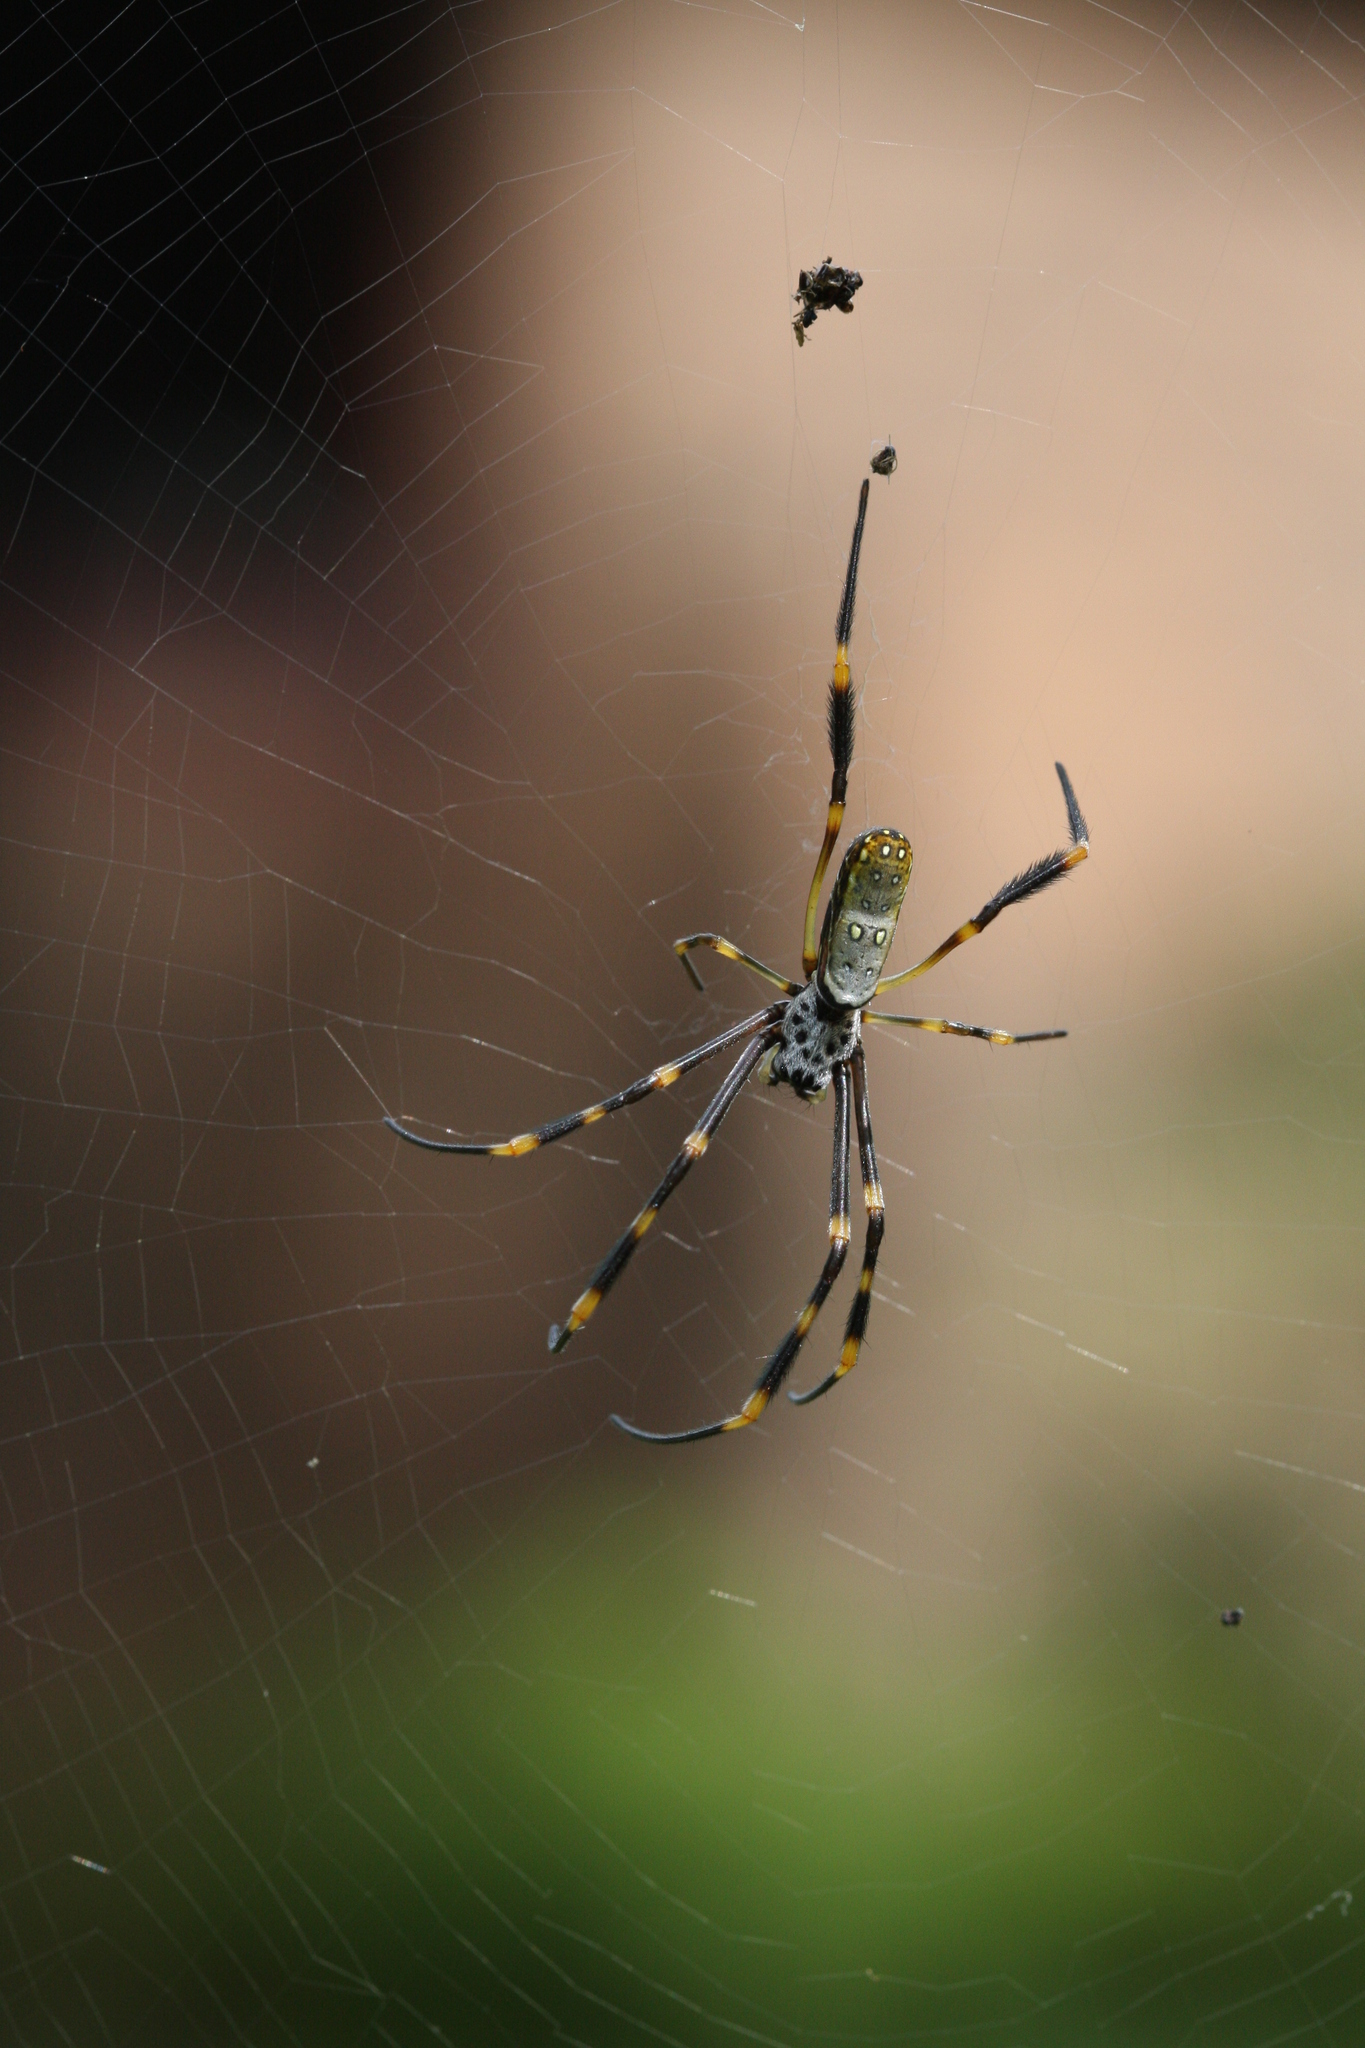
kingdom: Animalia
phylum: Arthropoda
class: Arachnida
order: Araneae
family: Araneidae
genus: Trichonephila
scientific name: Trichonephila plumipes
